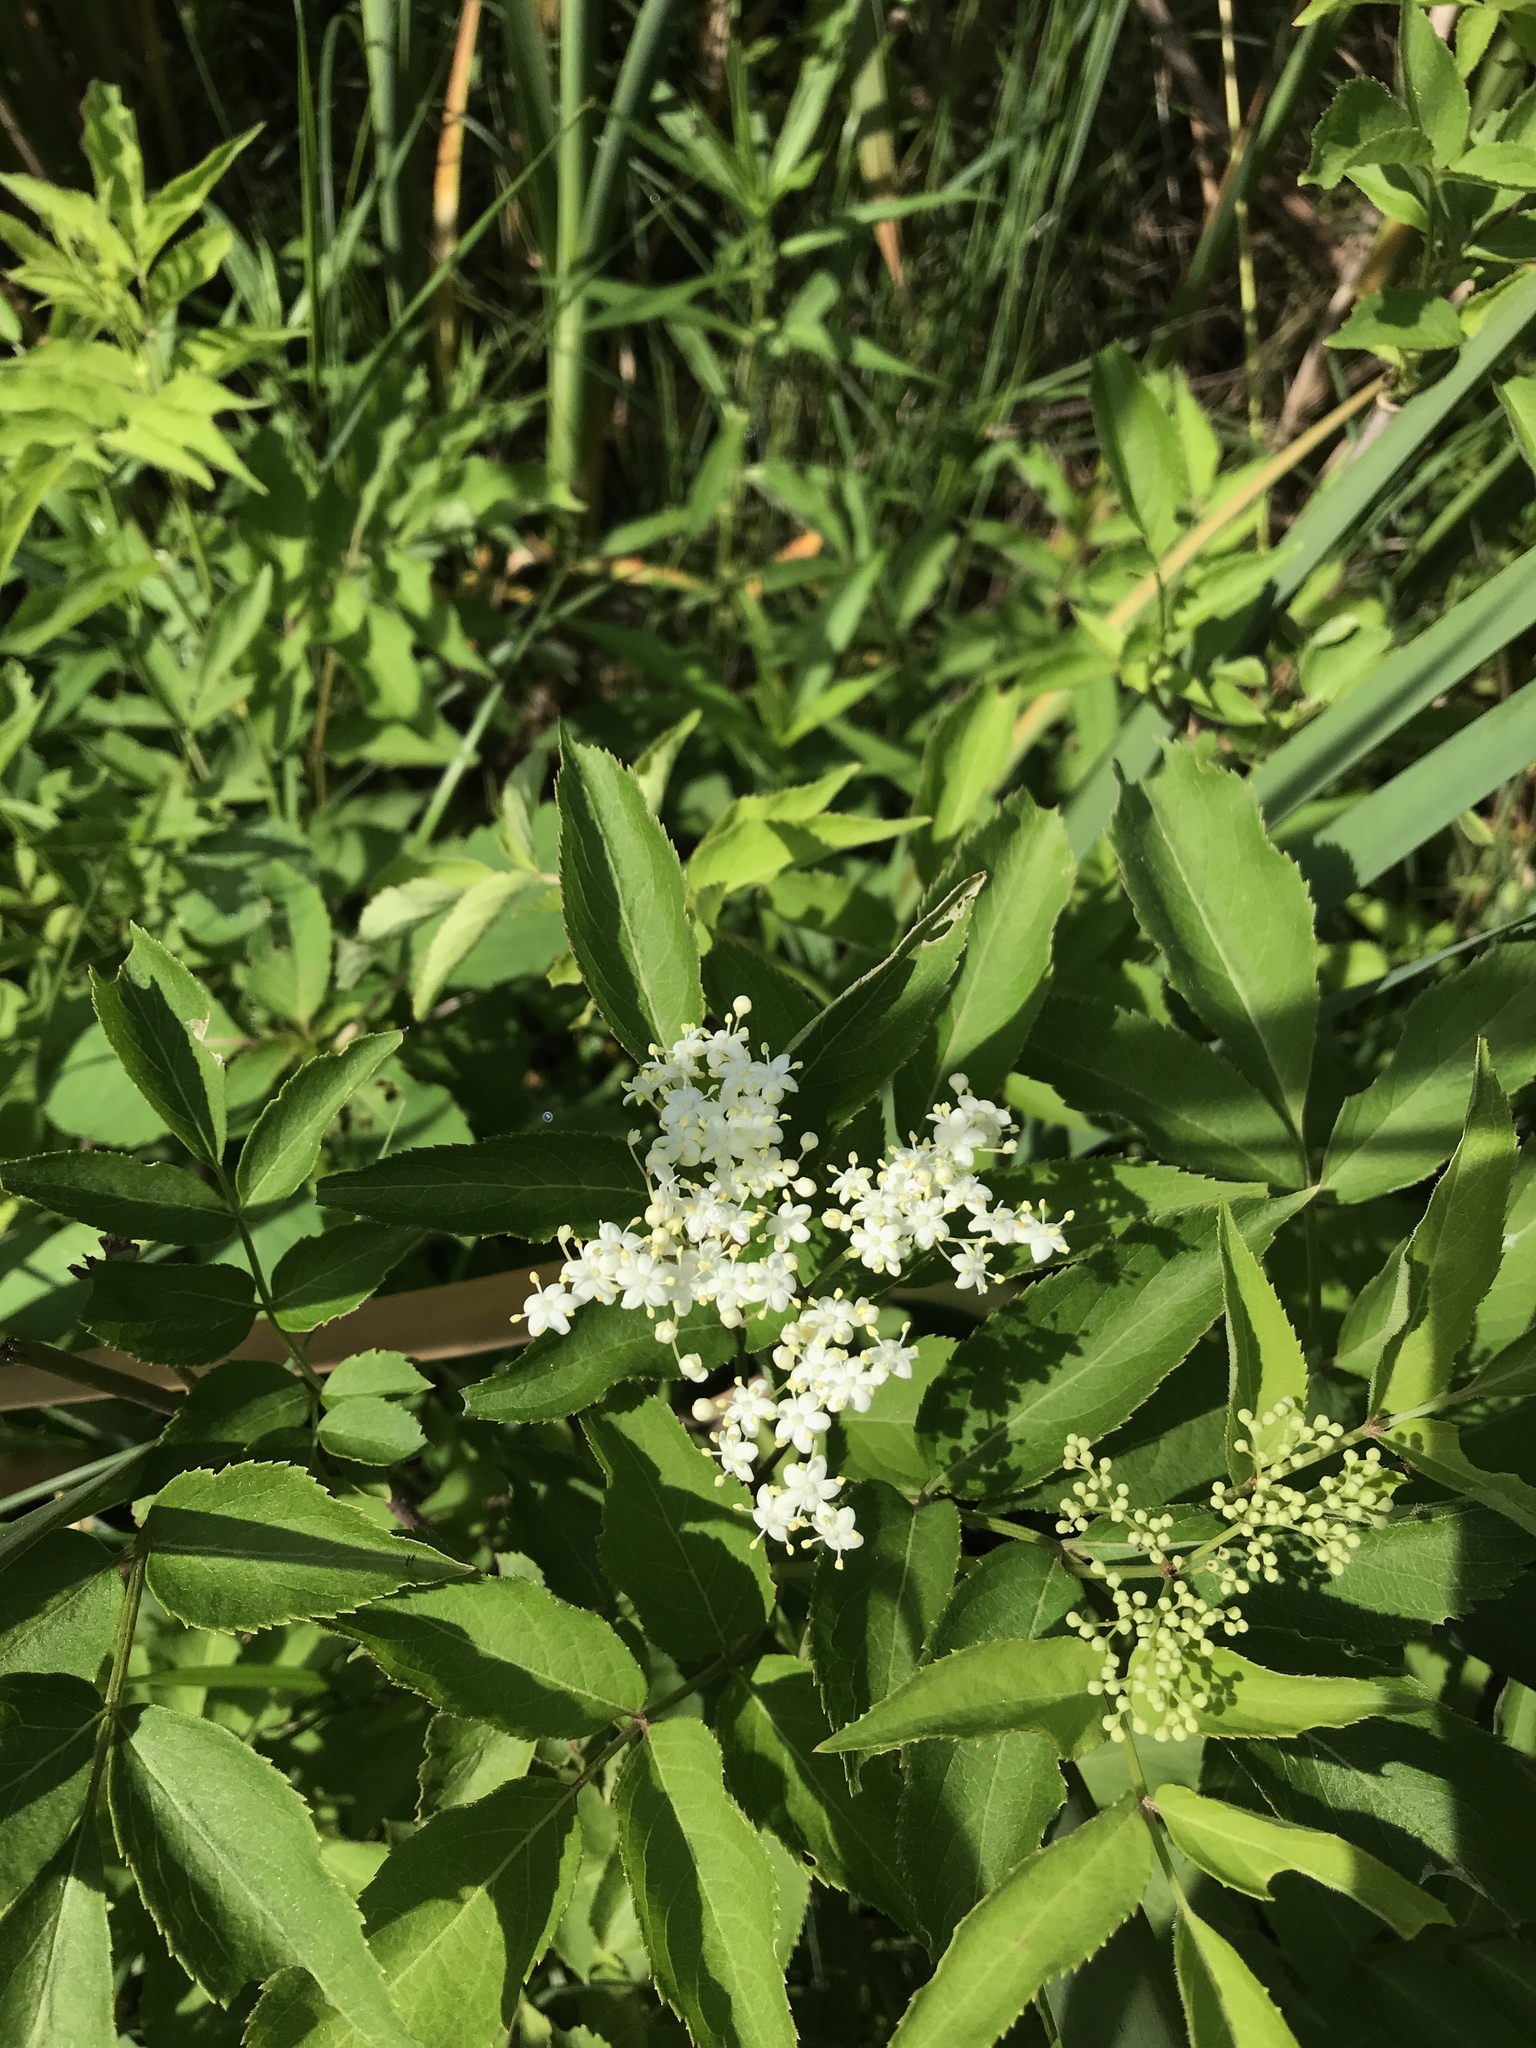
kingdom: Plantae
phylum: Tracheophyta
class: Magnoliopsida
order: Dipsacales
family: Viburnaceae
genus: Sambucus
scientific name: Sambucus canadensis
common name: American elder
